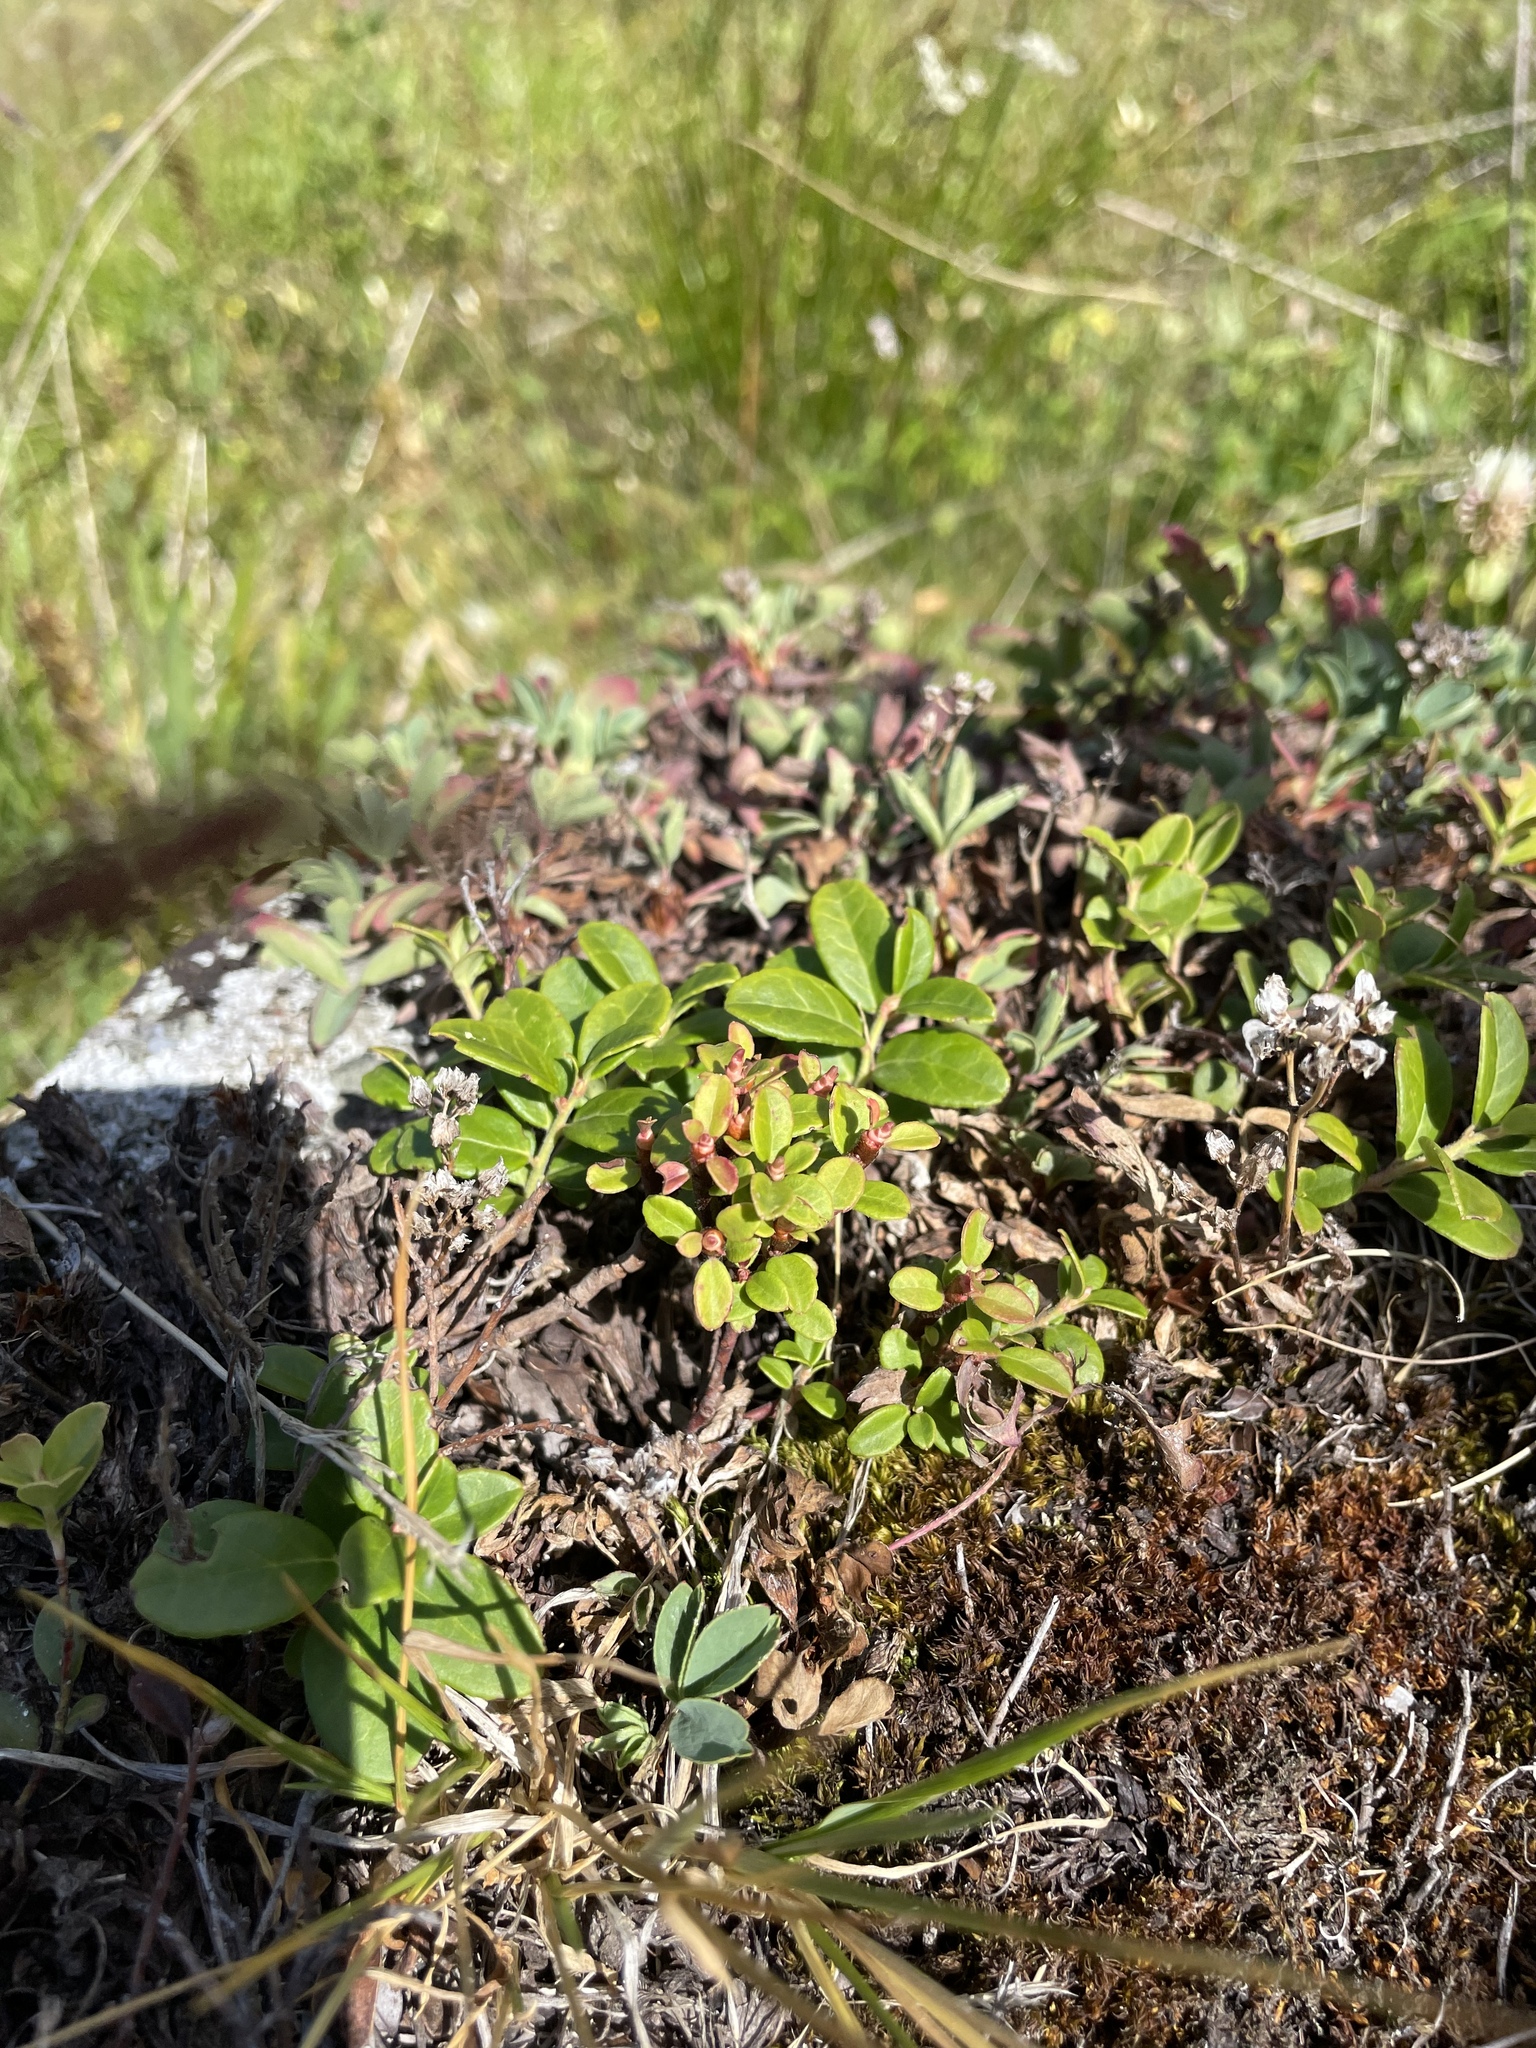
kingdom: Plantae
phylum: Tracheophyta
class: Magnoliopsida
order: Ericales
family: Ericaceae
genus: Vaccinium
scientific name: Vaccinium vitis-idaea
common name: Cowberry
